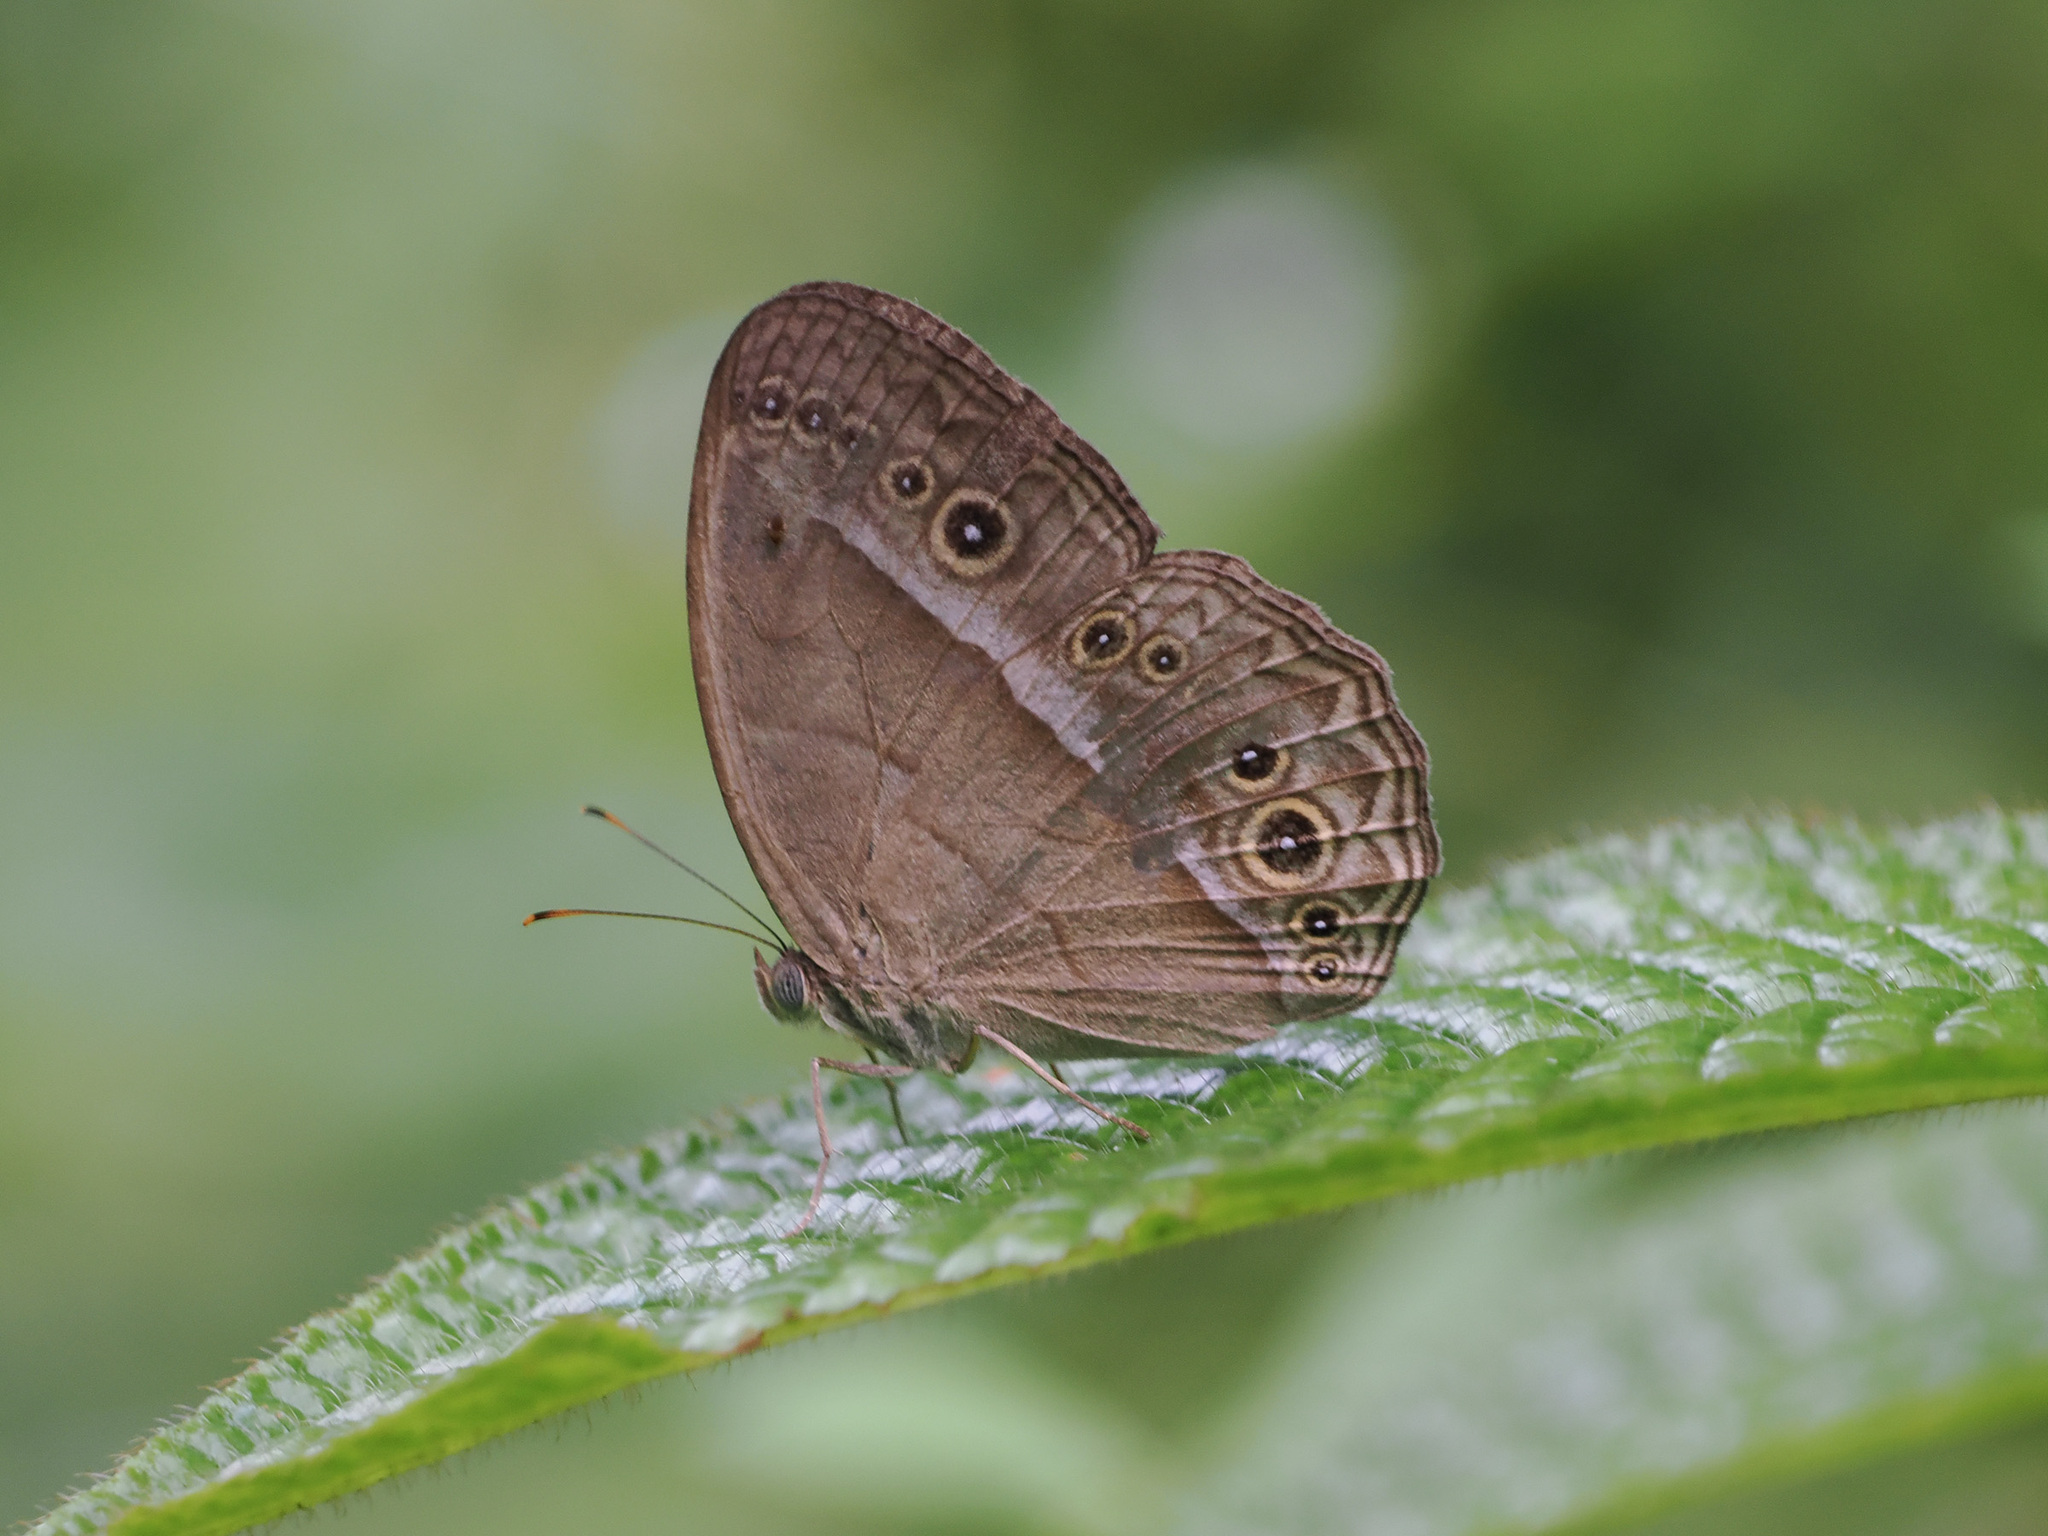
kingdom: Animalia
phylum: Arthropoda
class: Insecta
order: Lepidoptera
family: Nymphalidae
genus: Mycalesis
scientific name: Mycalesis orseis
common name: Purple bushbrown
